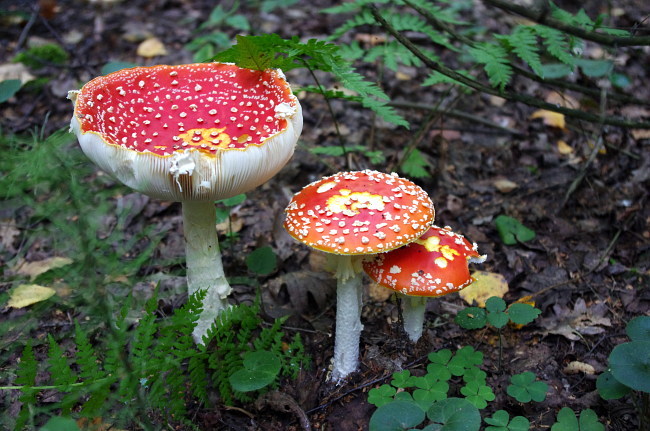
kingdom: Fungi
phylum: Basidiomycota
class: Agaricomycetes
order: Agaricales
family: Amanitaceae
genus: Amanita
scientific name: Amanita muscaria
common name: Fly agaric
